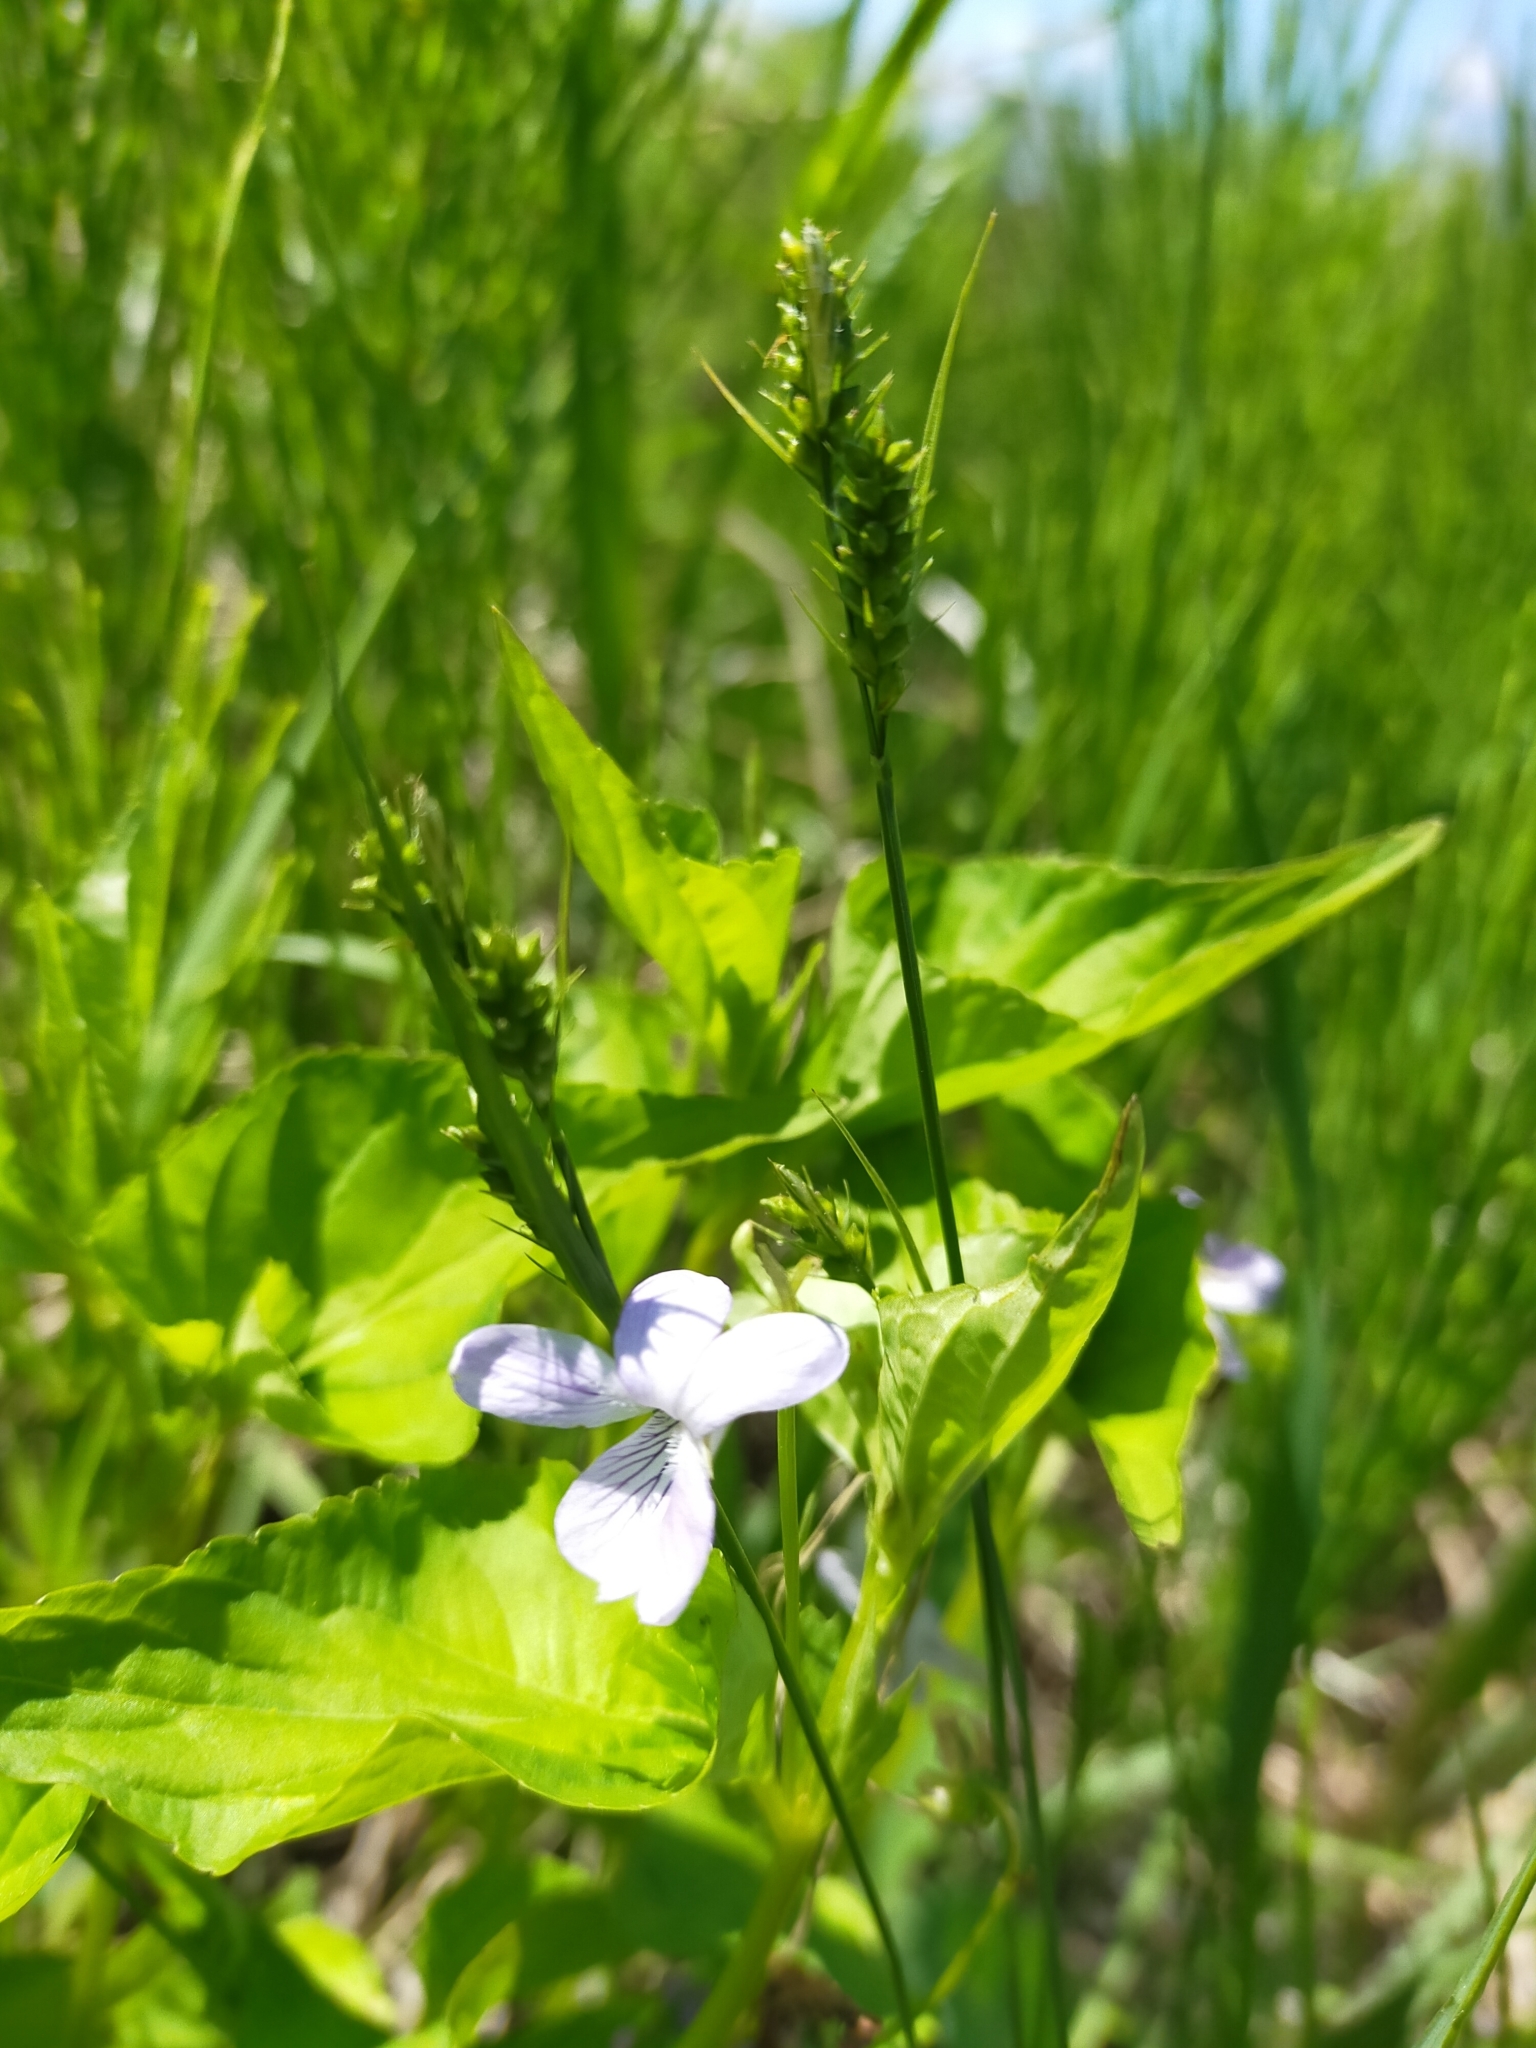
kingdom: Plantae
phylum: Tracheophyta
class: Magnoliopsida
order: Malpighiales
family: Violaceae
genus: Viola
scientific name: Viola acuminata
